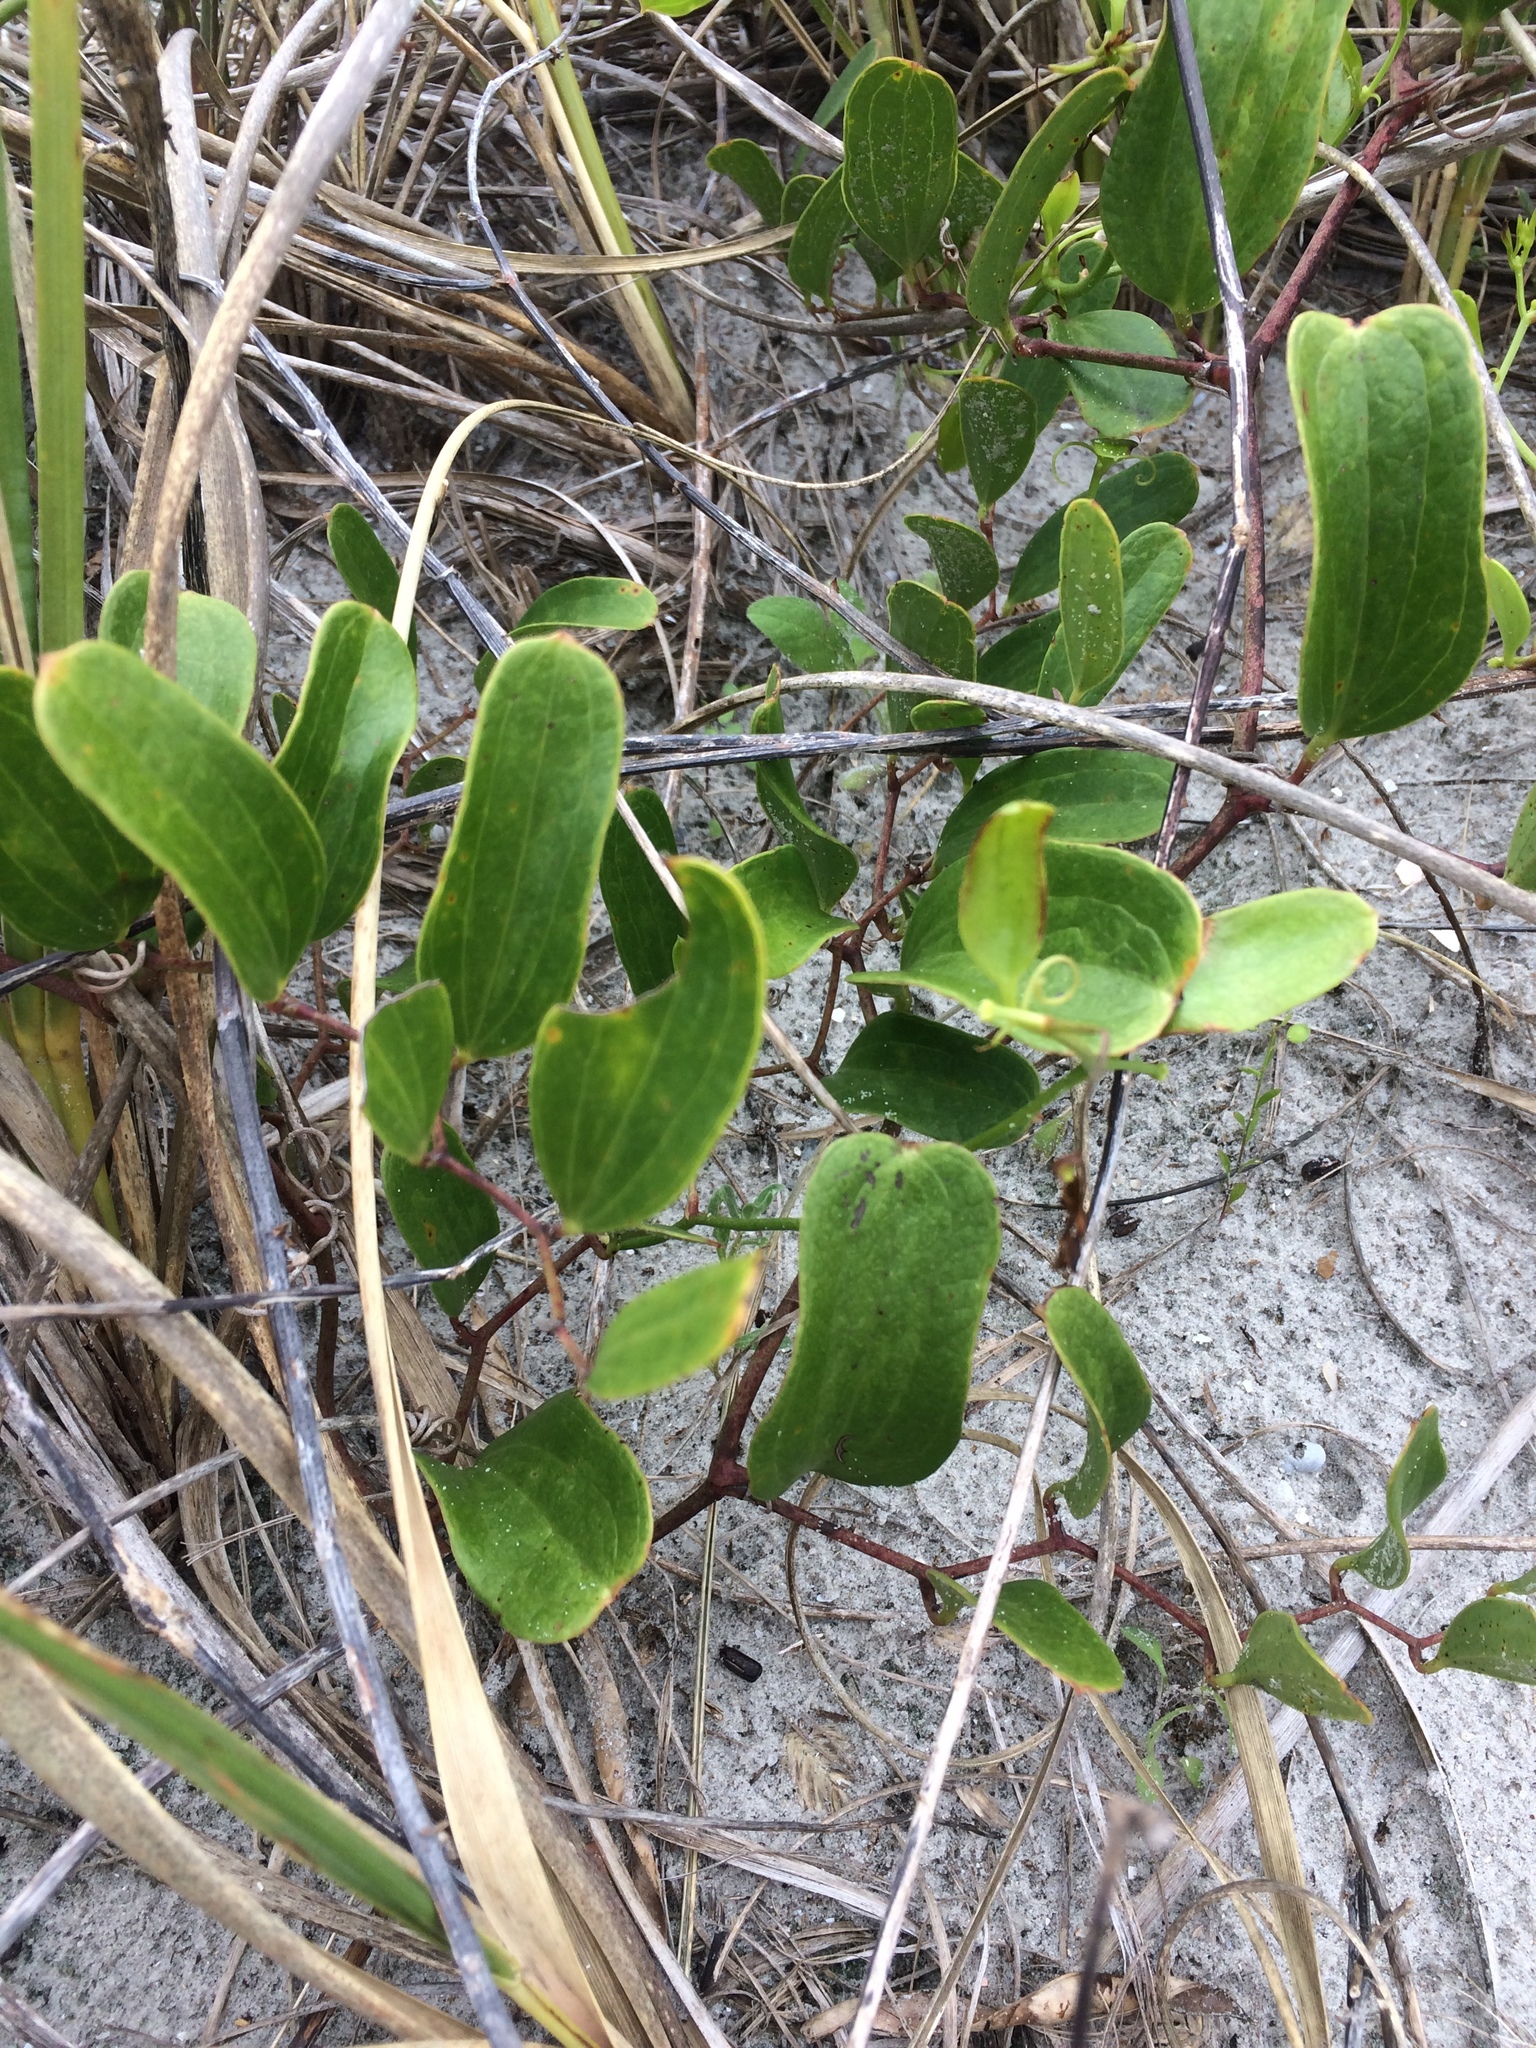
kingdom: Plantae
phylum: Tracheophyta
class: Liliopsida
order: Liliales
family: Smilacaceae
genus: Smilax
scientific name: Smilax auriculata
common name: Wild bamboo
